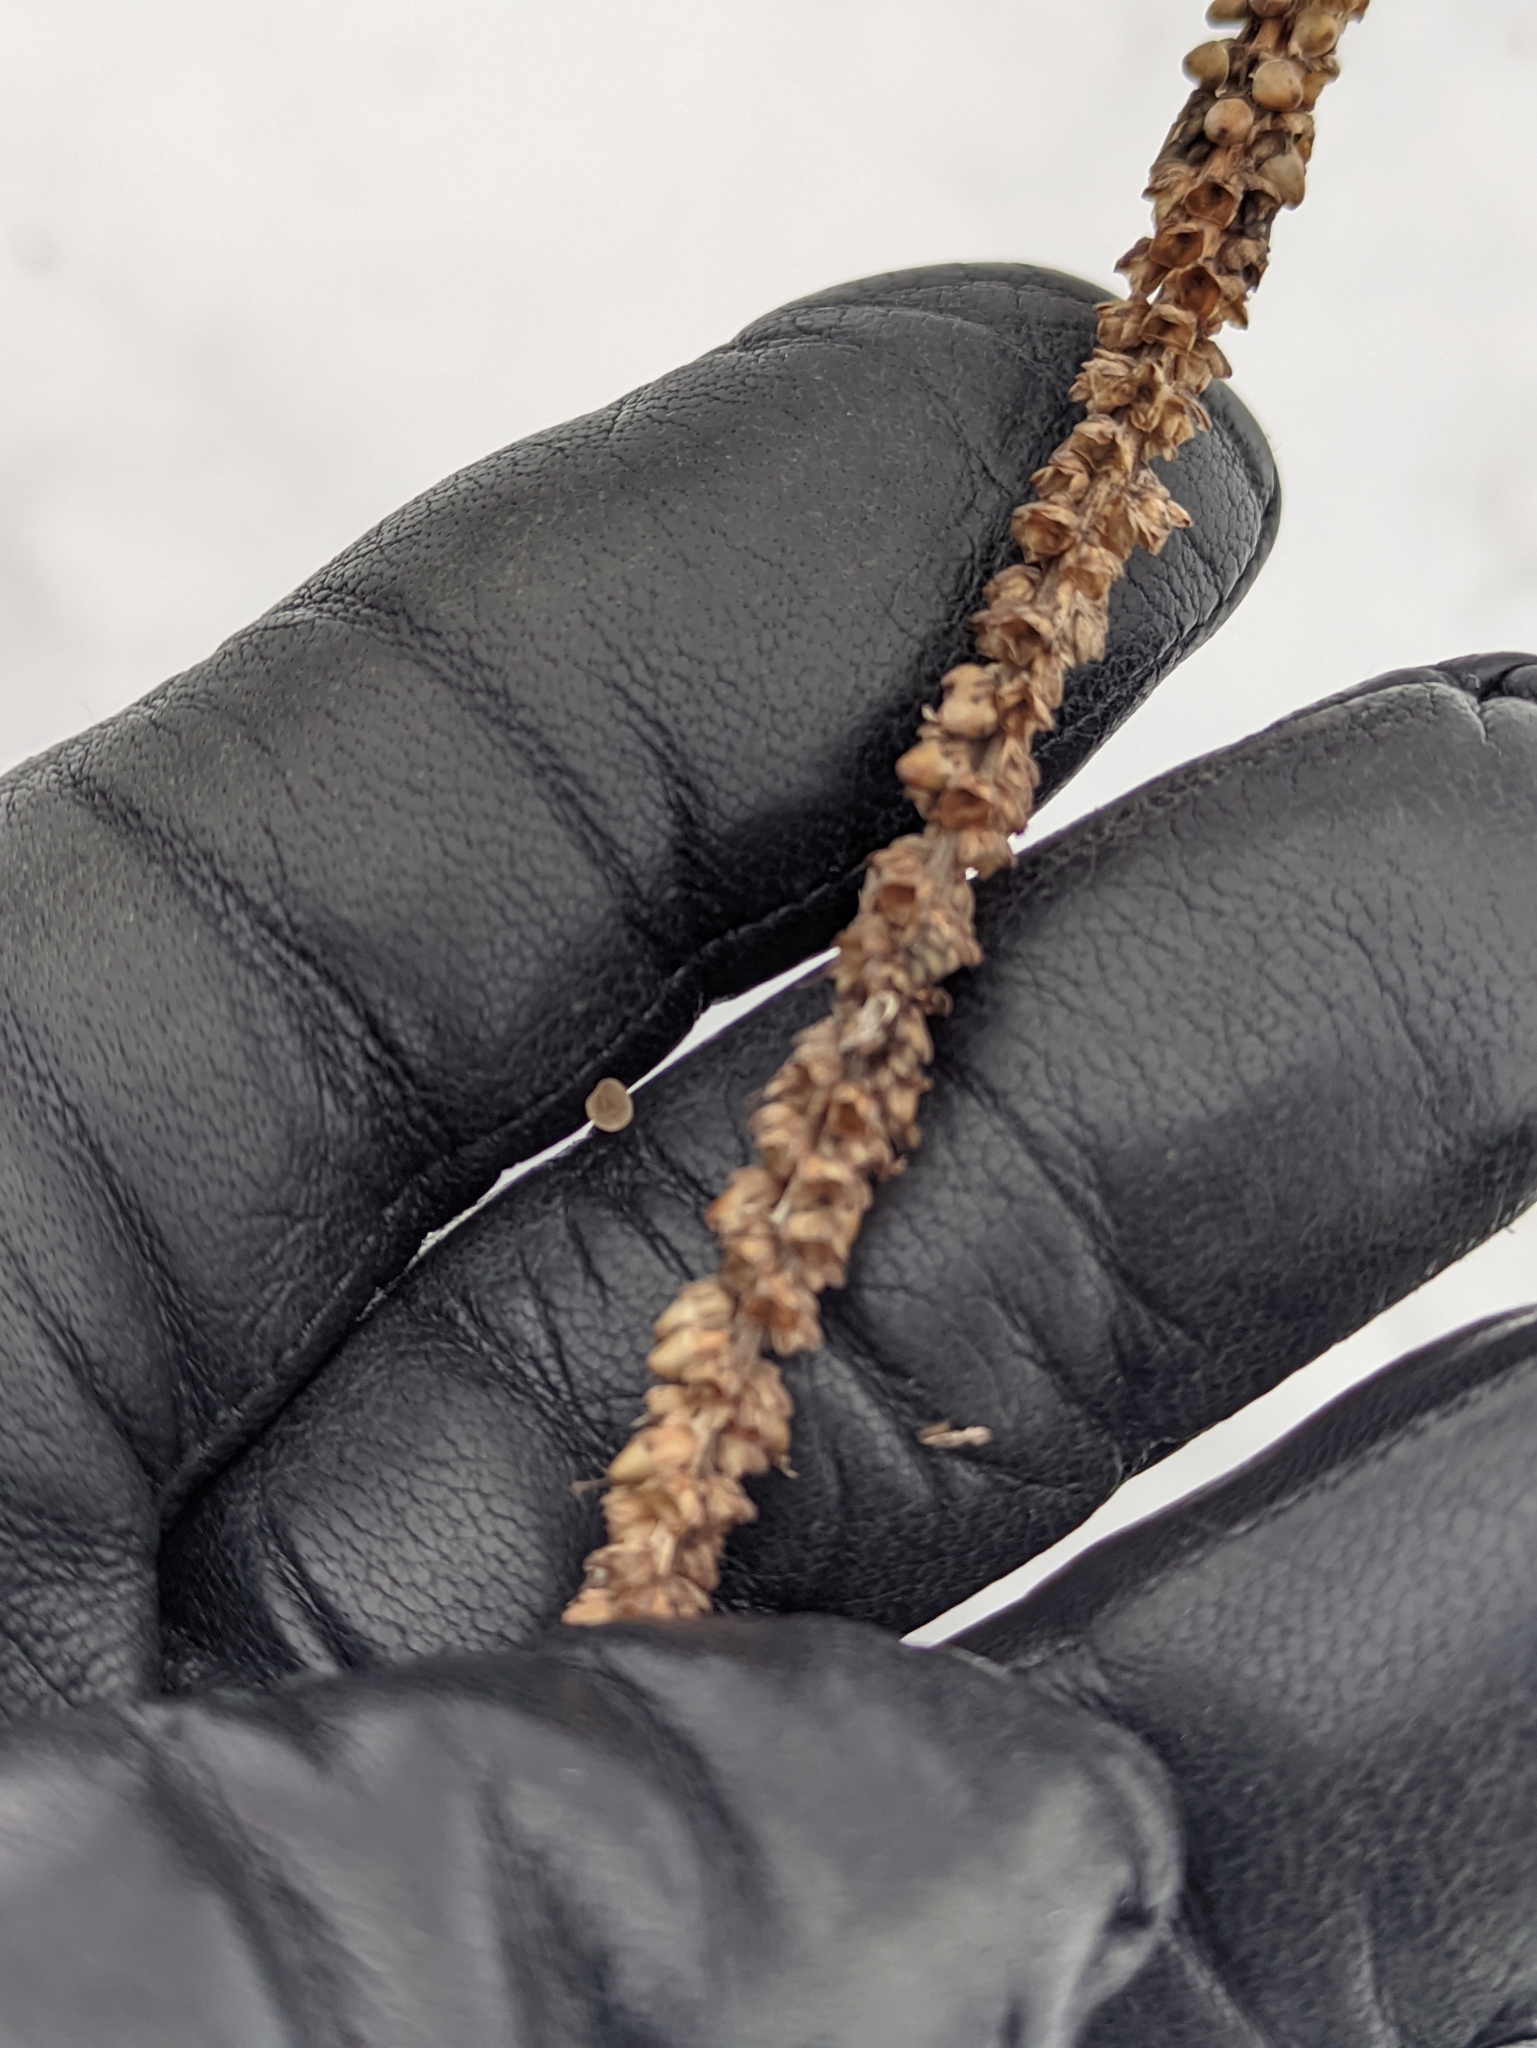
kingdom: Plantae
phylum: Tracheophyta
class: Magnoliopsida
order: Lamiales
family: Plantaginaceae
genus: Plantago
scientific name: Plantago major
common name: Common plantain
